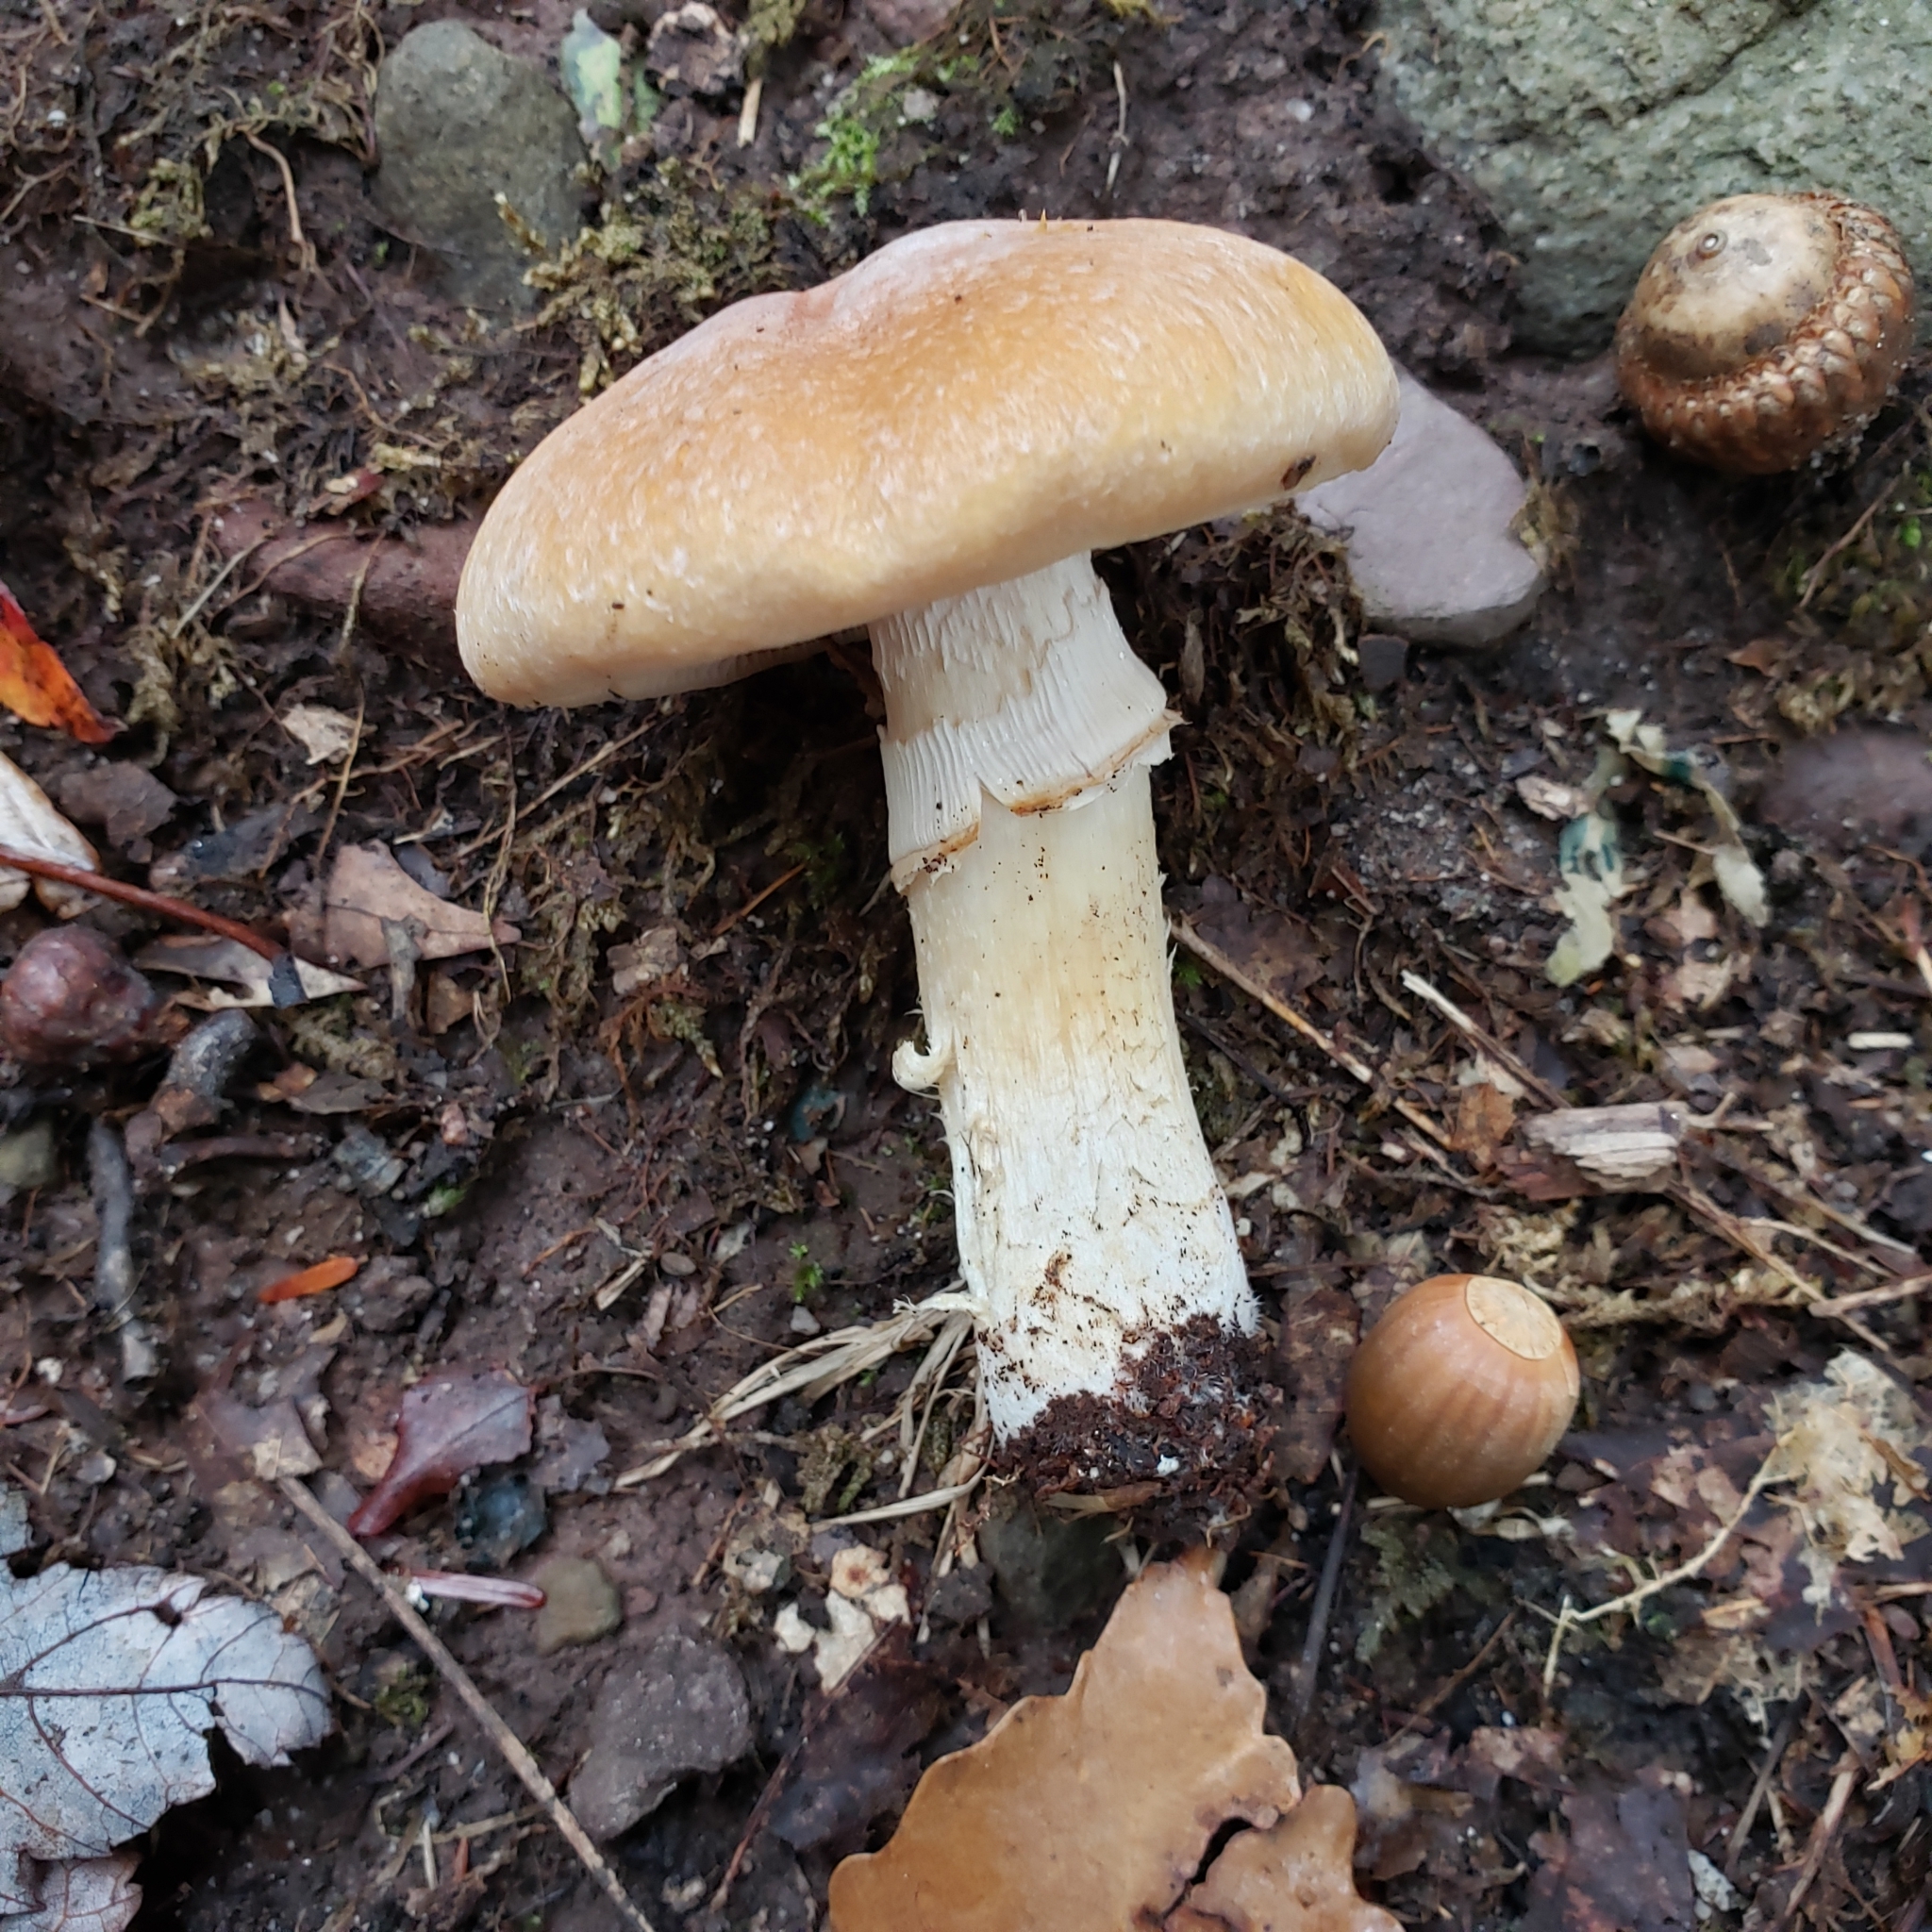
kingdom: Fungi
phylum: Basidiomycota
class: Agaricomycetes
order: Agaricales
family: Cortinariaceae
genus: Cortinarius
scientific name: Cortinarius caperatus
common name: The gypsy
